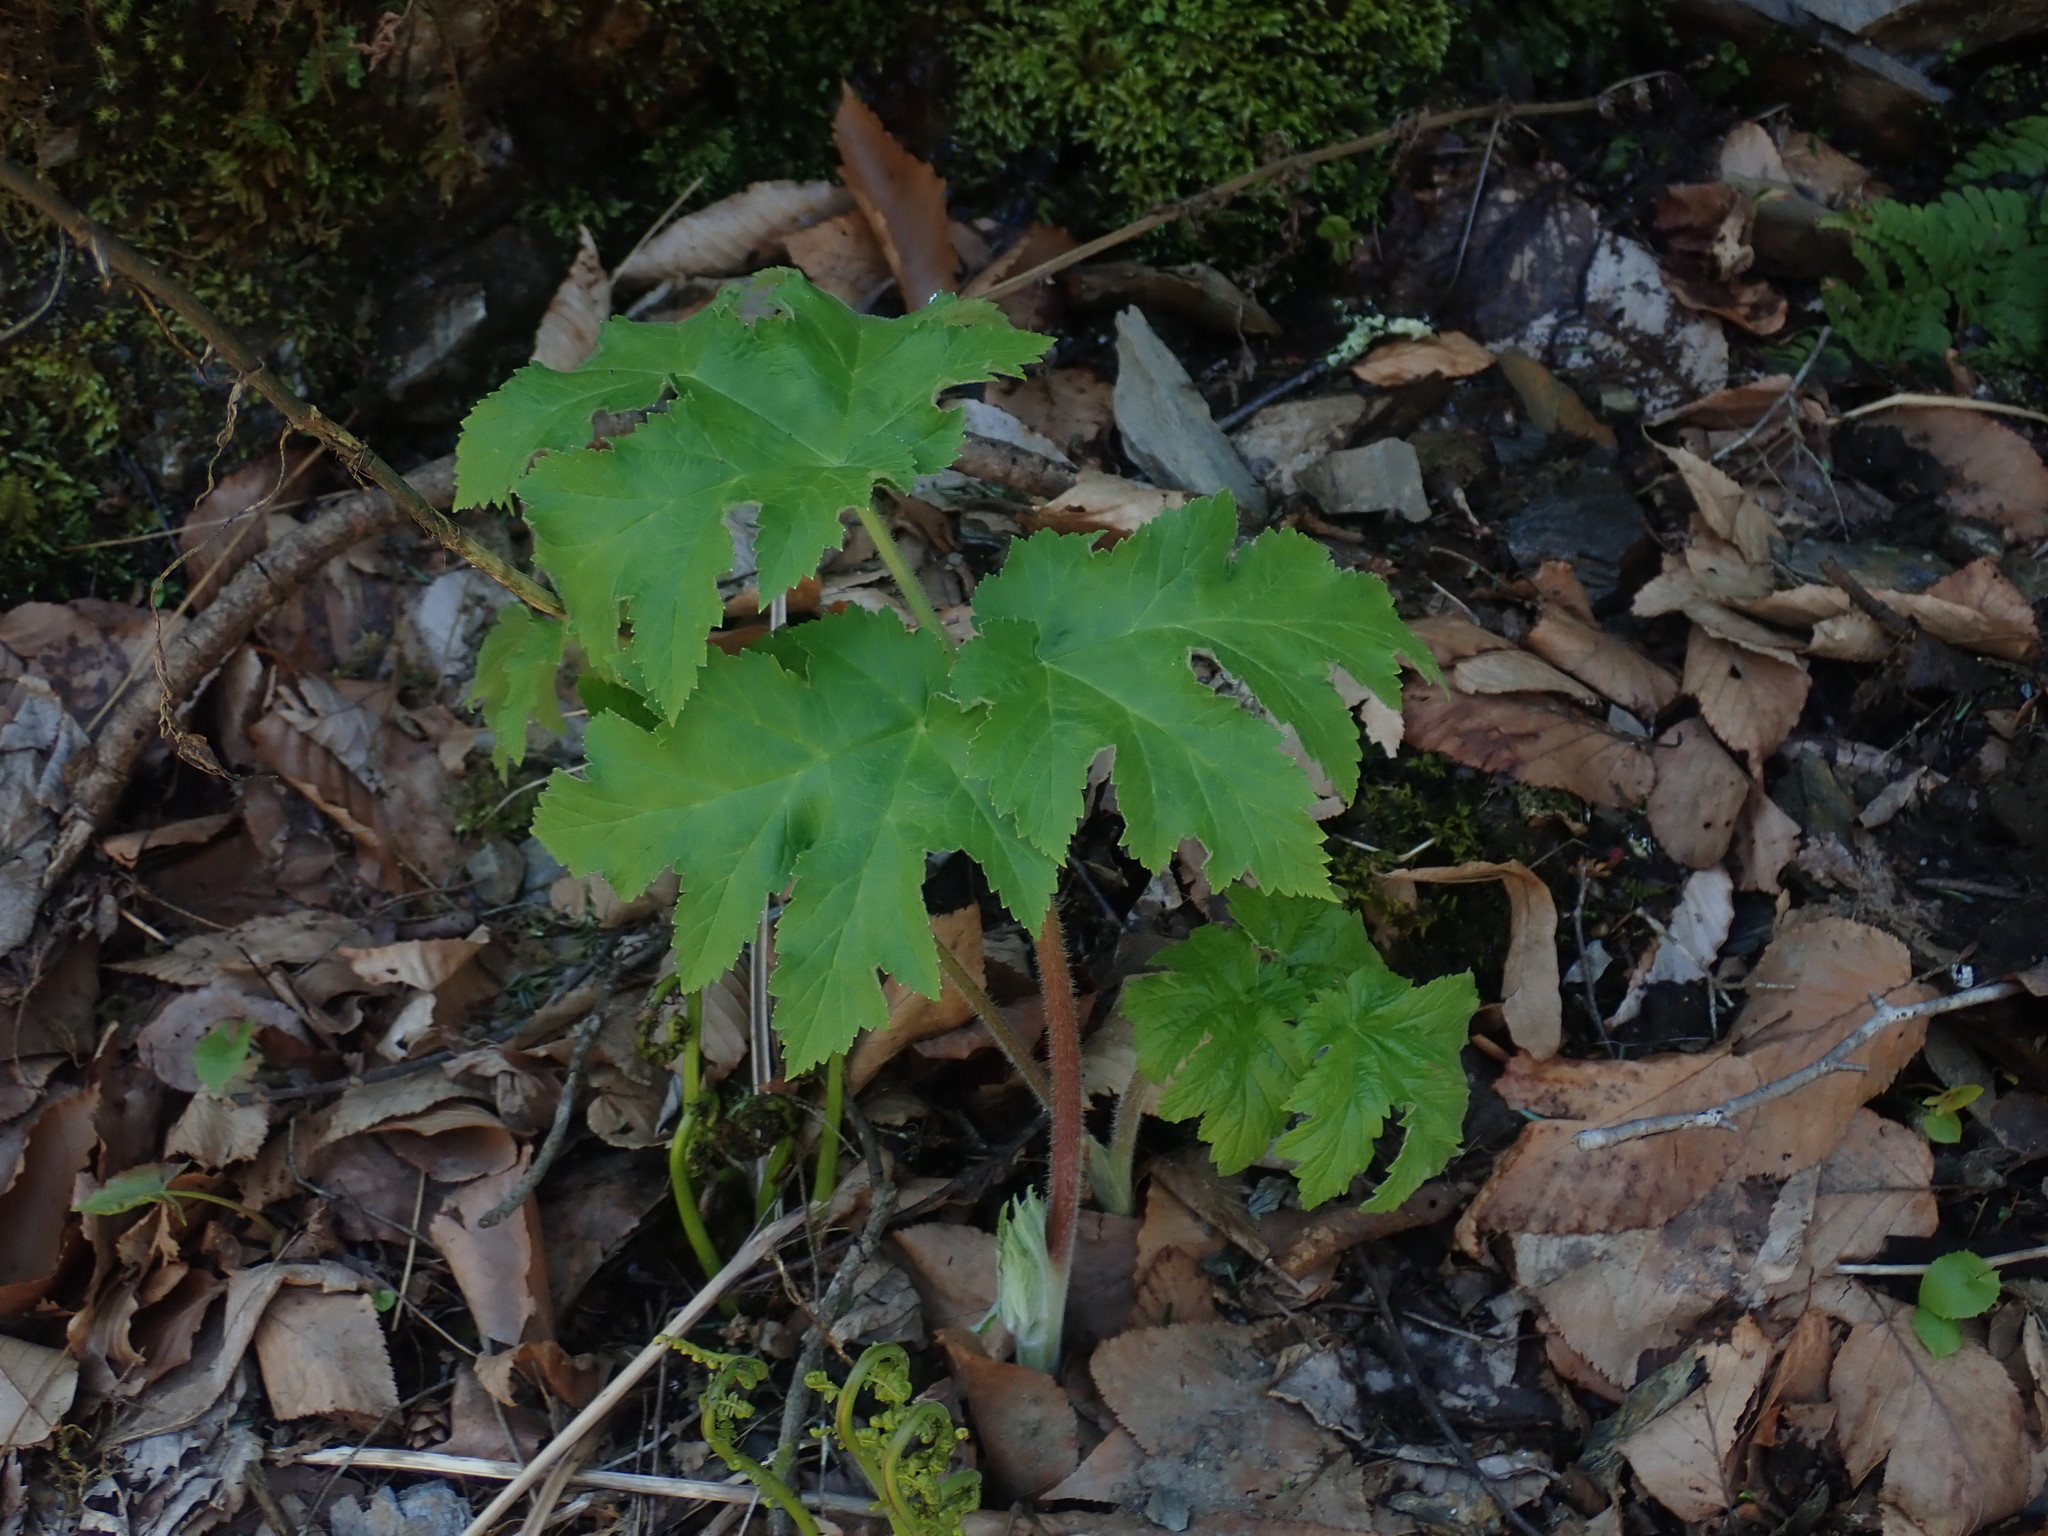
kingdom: Plantae
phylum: Tracheophyta
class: Magnoliopsida
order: Apiales
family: Apiaceae
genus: Heracleum
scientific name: Heracleum maximum
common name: American cow parsnip
